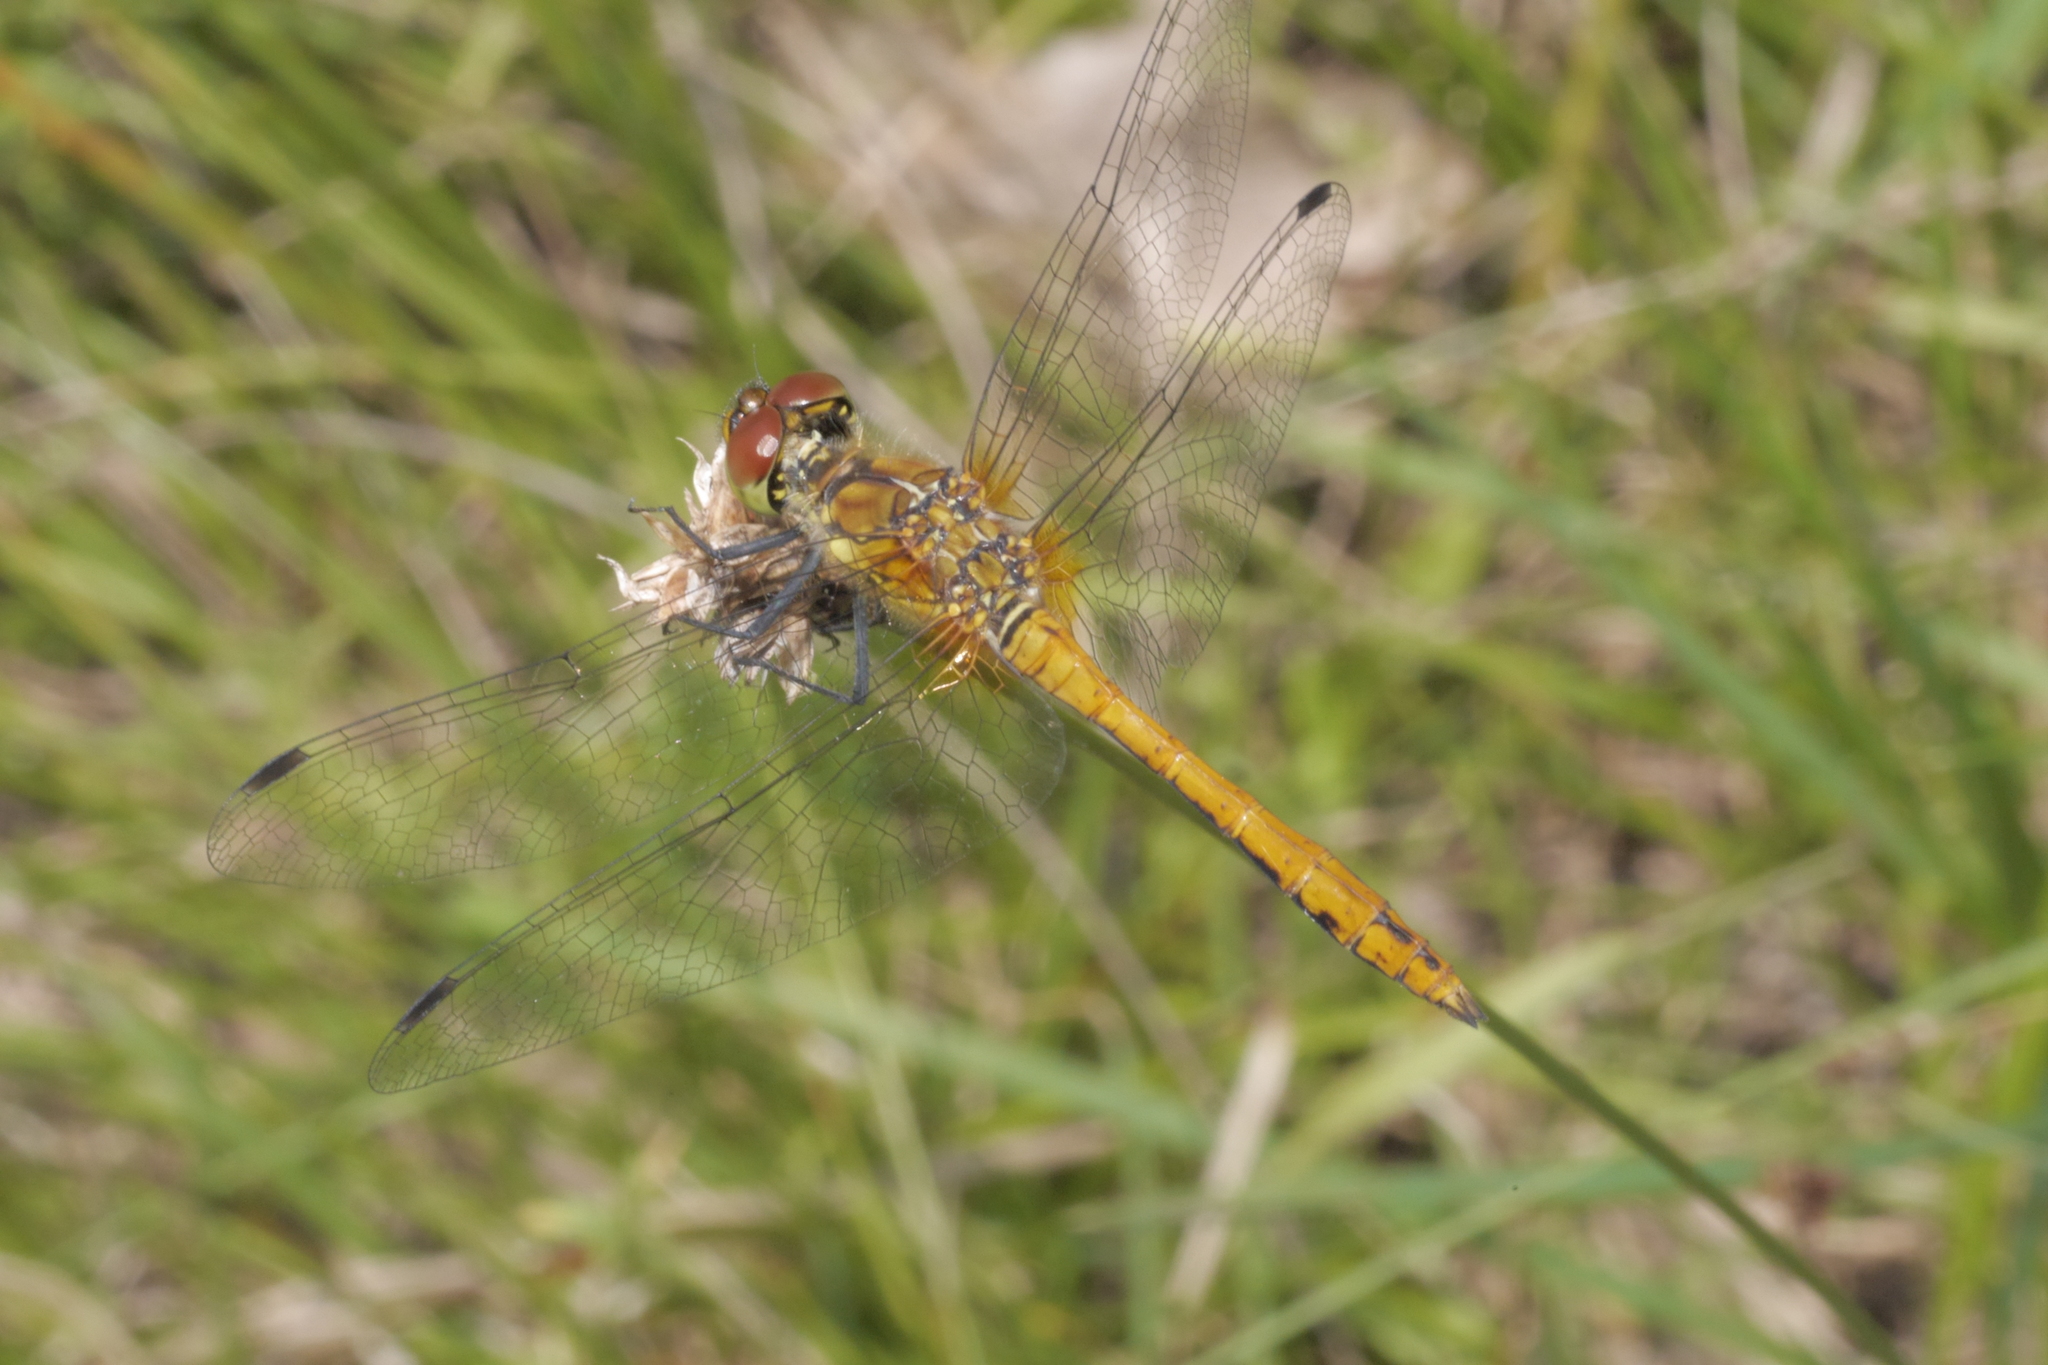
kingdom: Animalia
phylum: Arthropoda
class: Insecta
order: Odonata
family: Libellulidae
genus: Sympetrum
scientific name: Sympetrum sanguineum
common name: Ruddy darter
